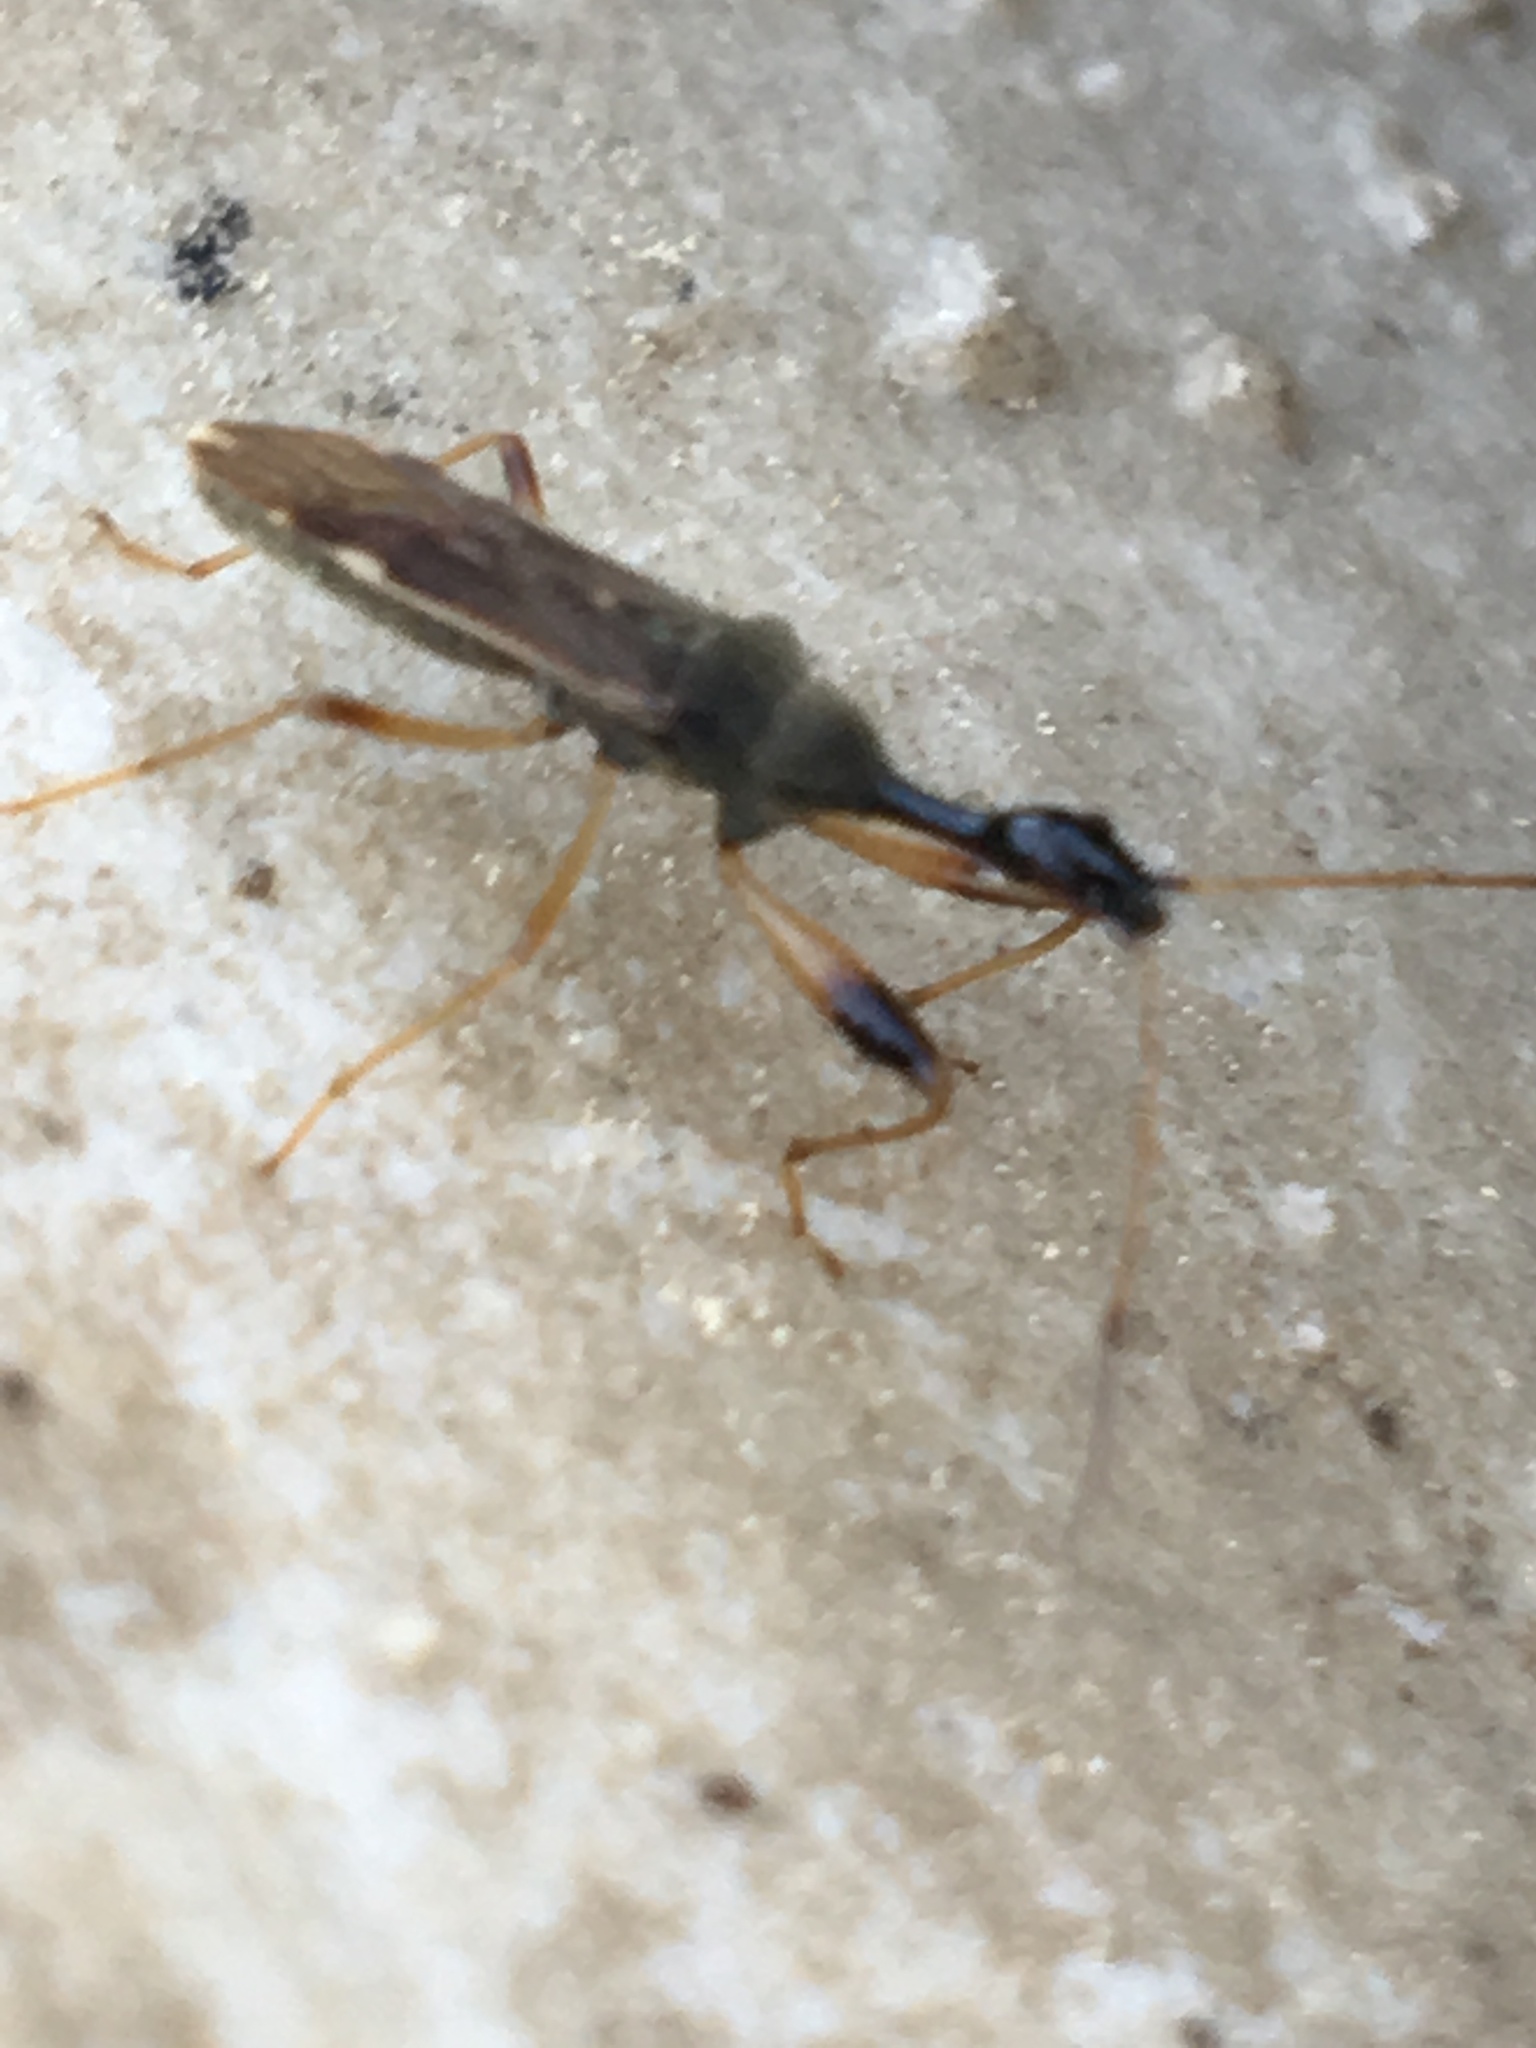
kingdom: Animalia
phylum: Arthropoda
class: Insecta
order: Hemiptera
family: Rhyparochromidae
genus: Myodocha
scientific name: Myodocha serripes
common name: Long-necked seed bug
